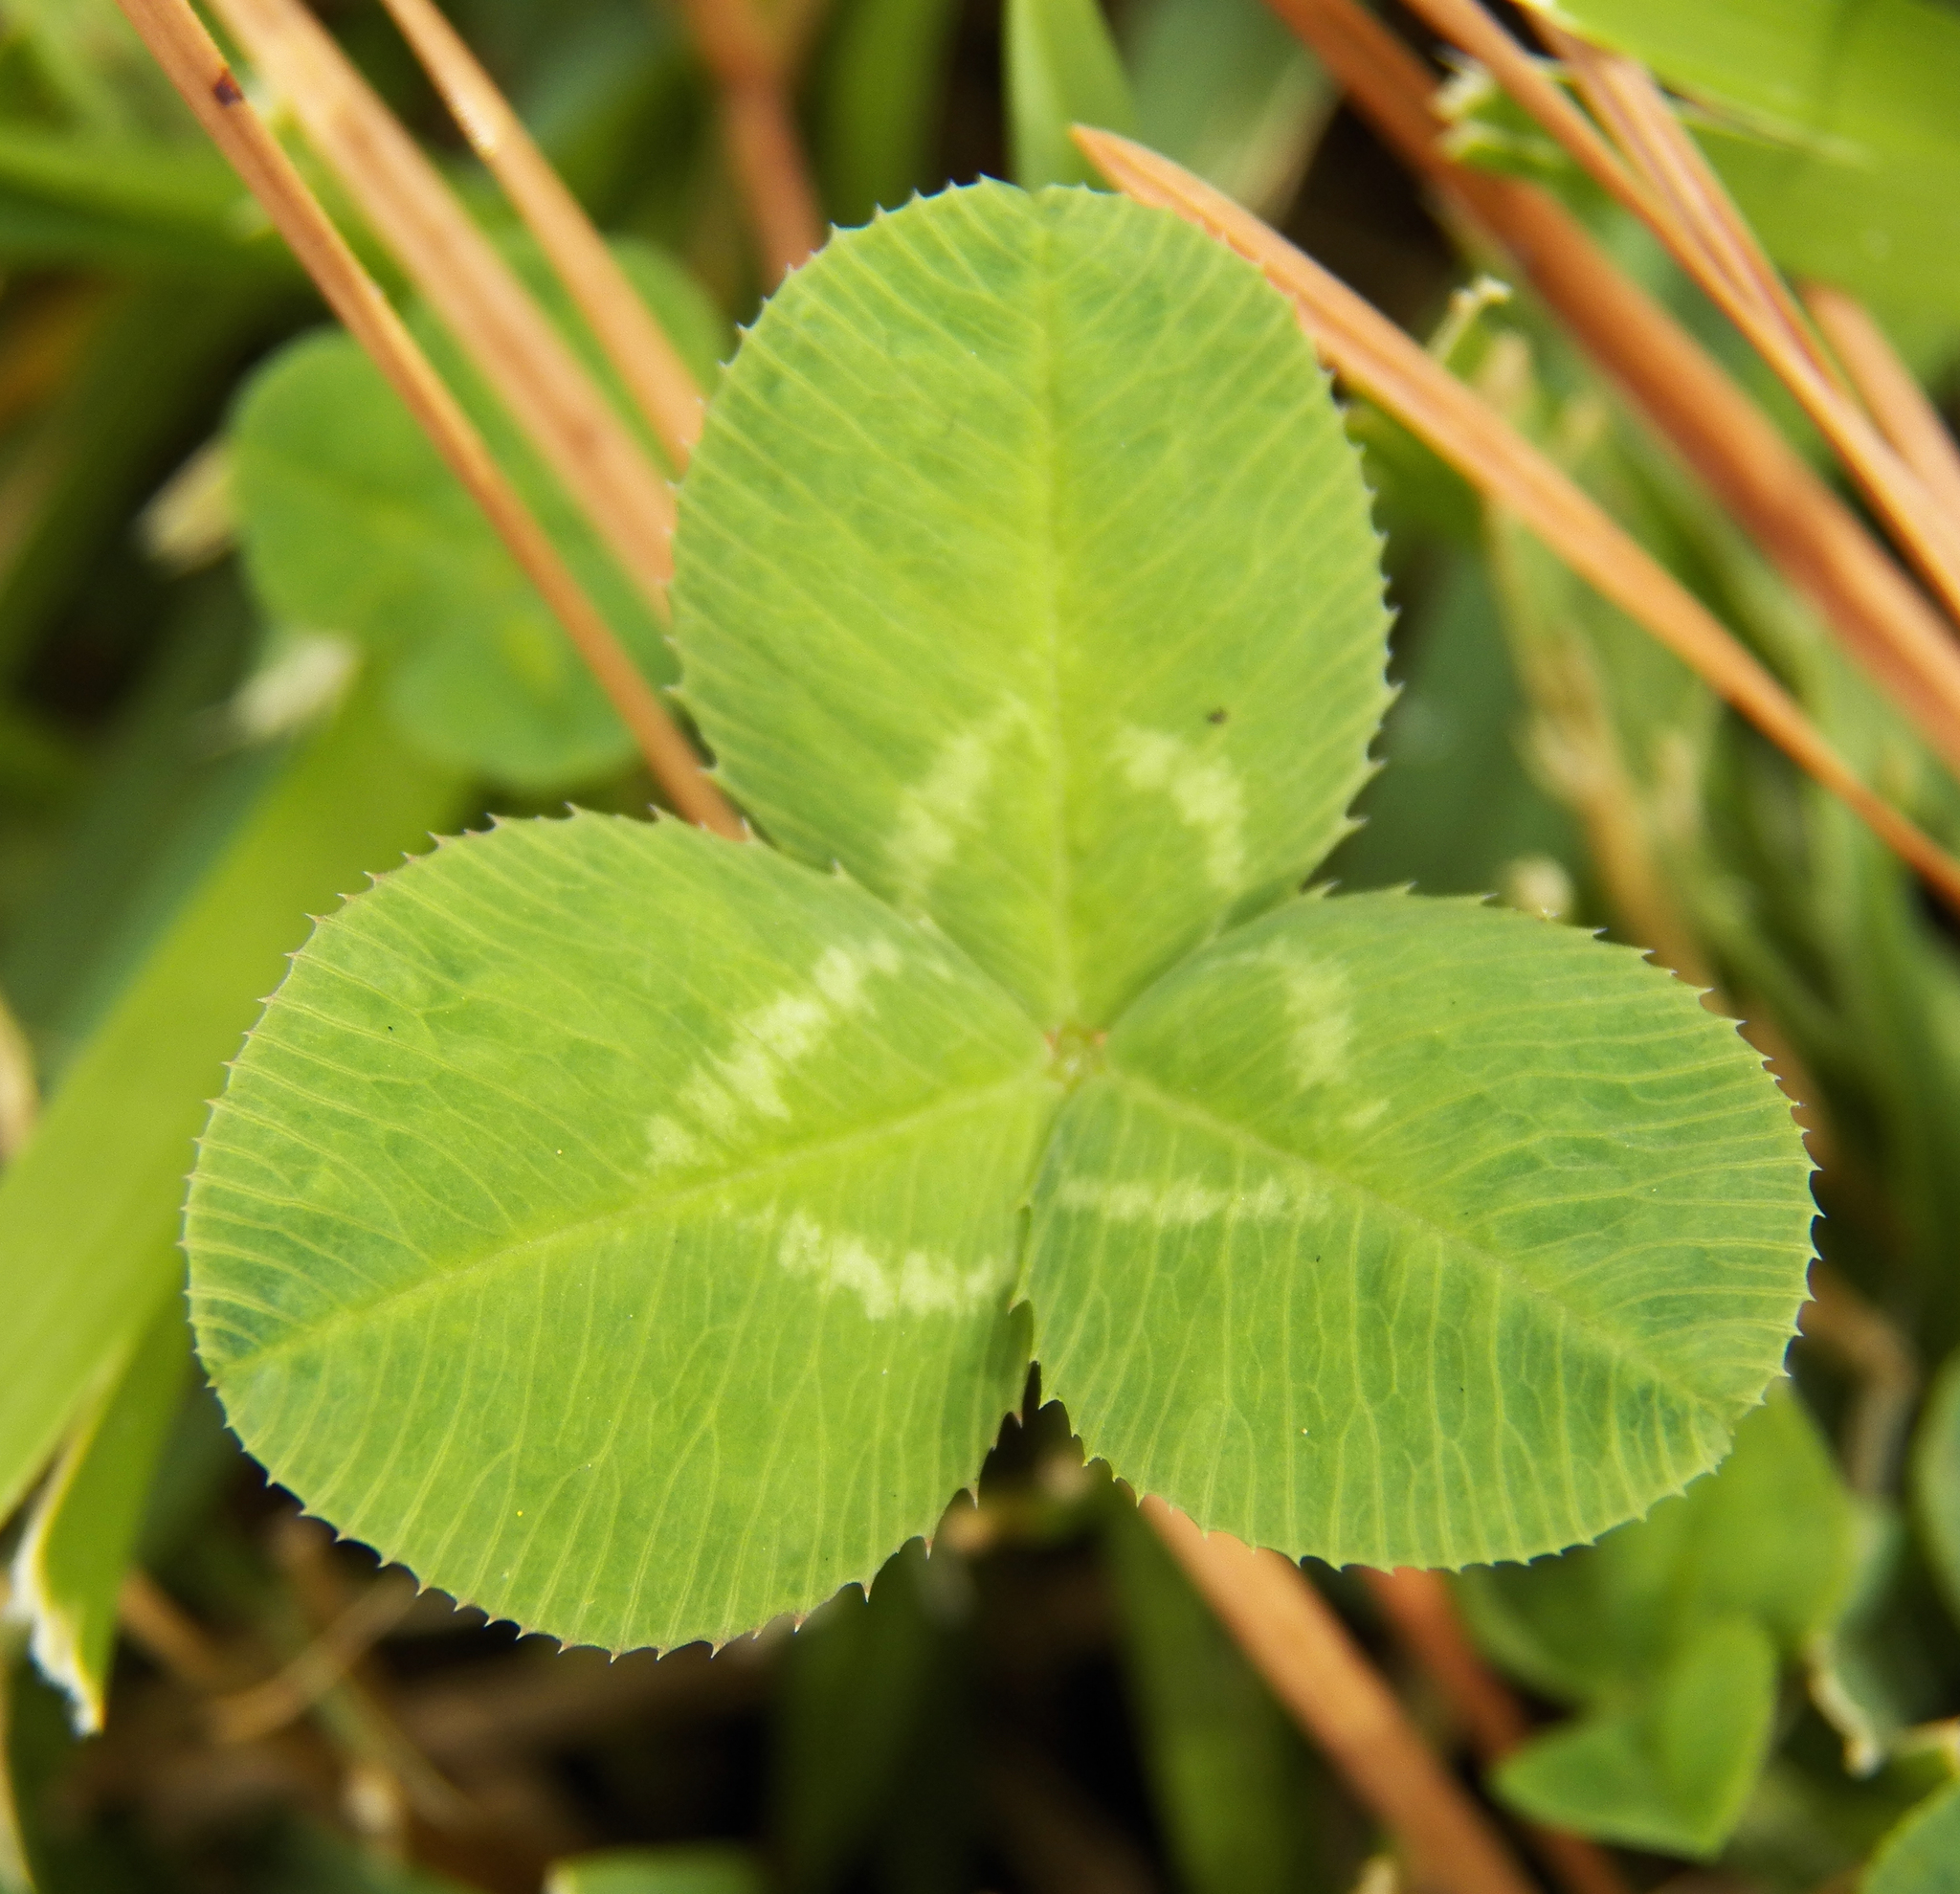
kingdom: Plantae
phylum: Tracheophyta
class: Magnoliopsida
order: Fabales
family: Fabaceae
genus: Trifolium
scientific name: Trifolium repens
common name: White clover
